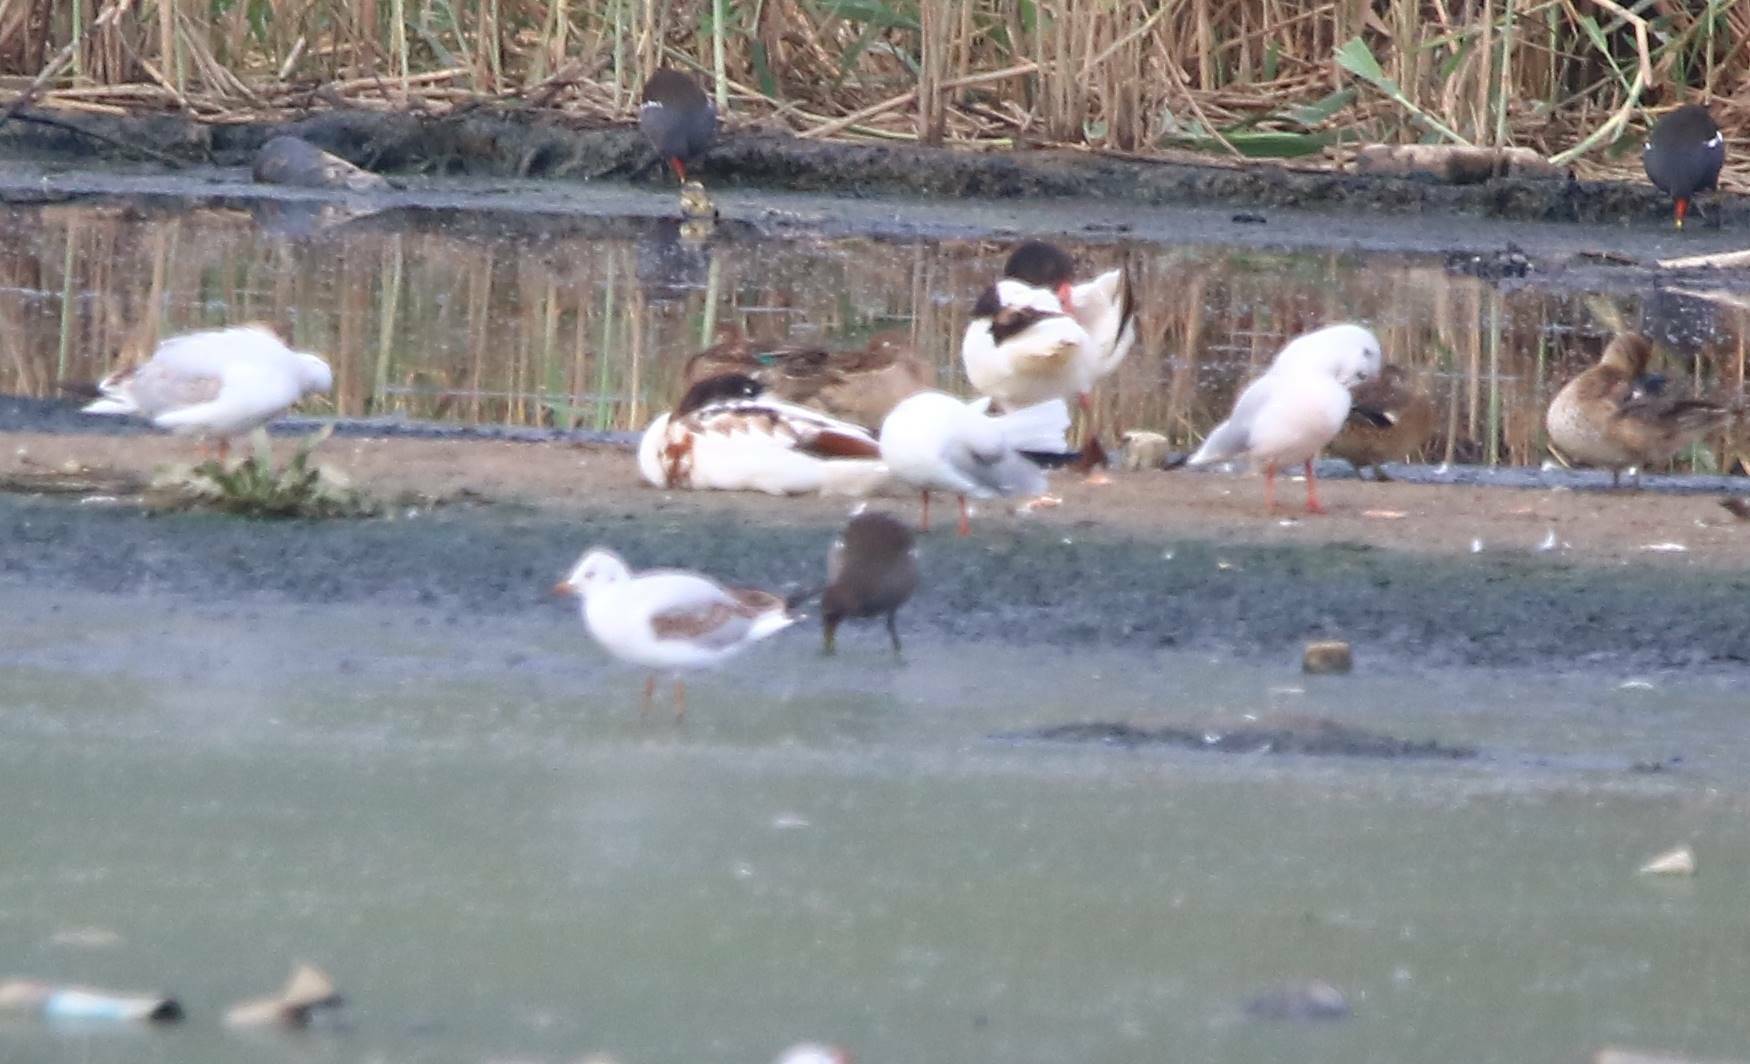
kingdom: Animalia
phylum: Chordata
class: Aves
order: Anseriformes
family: Anatidae
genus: Tadorna
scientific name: Tadorna tadorna
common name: Common shelduck
